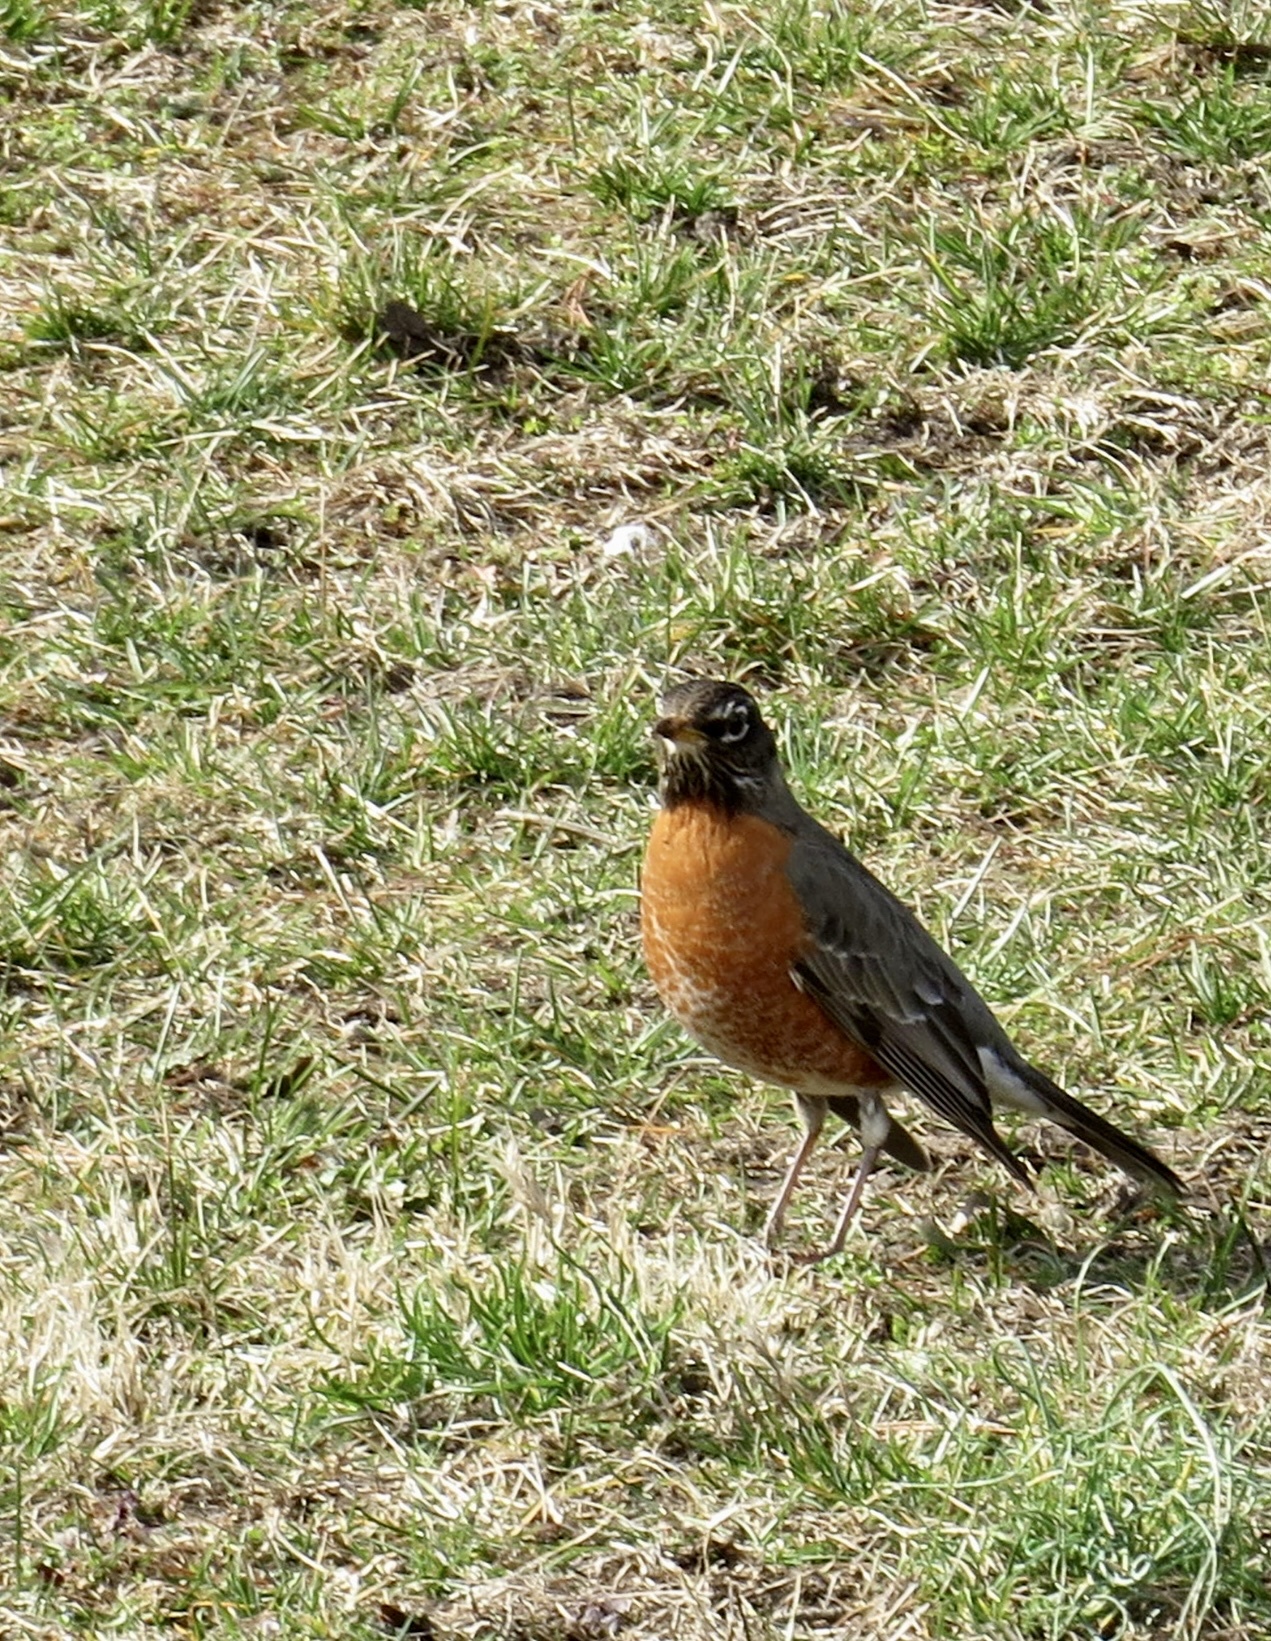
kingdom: Animalia
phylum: Chordata
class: Aves
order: Passeriformes
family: Turdidae
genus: Turdus
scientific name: Turdus migratorius
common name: American robin
